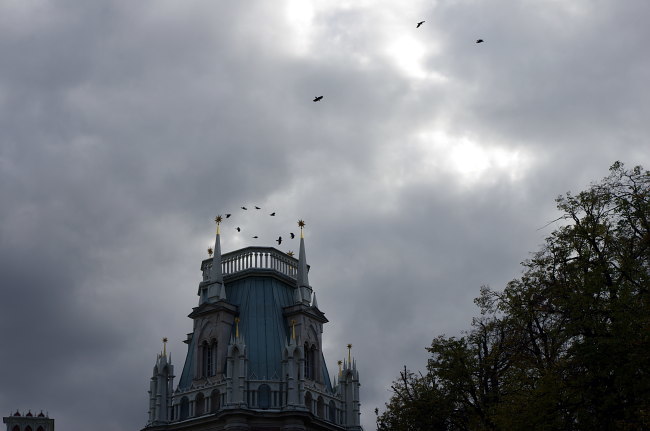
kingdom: Animalia
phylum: Chordata
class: Aves
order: Passeriformes
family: Corvidae
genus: Corvus
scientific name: Corvus cornix
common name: Hooded crow
